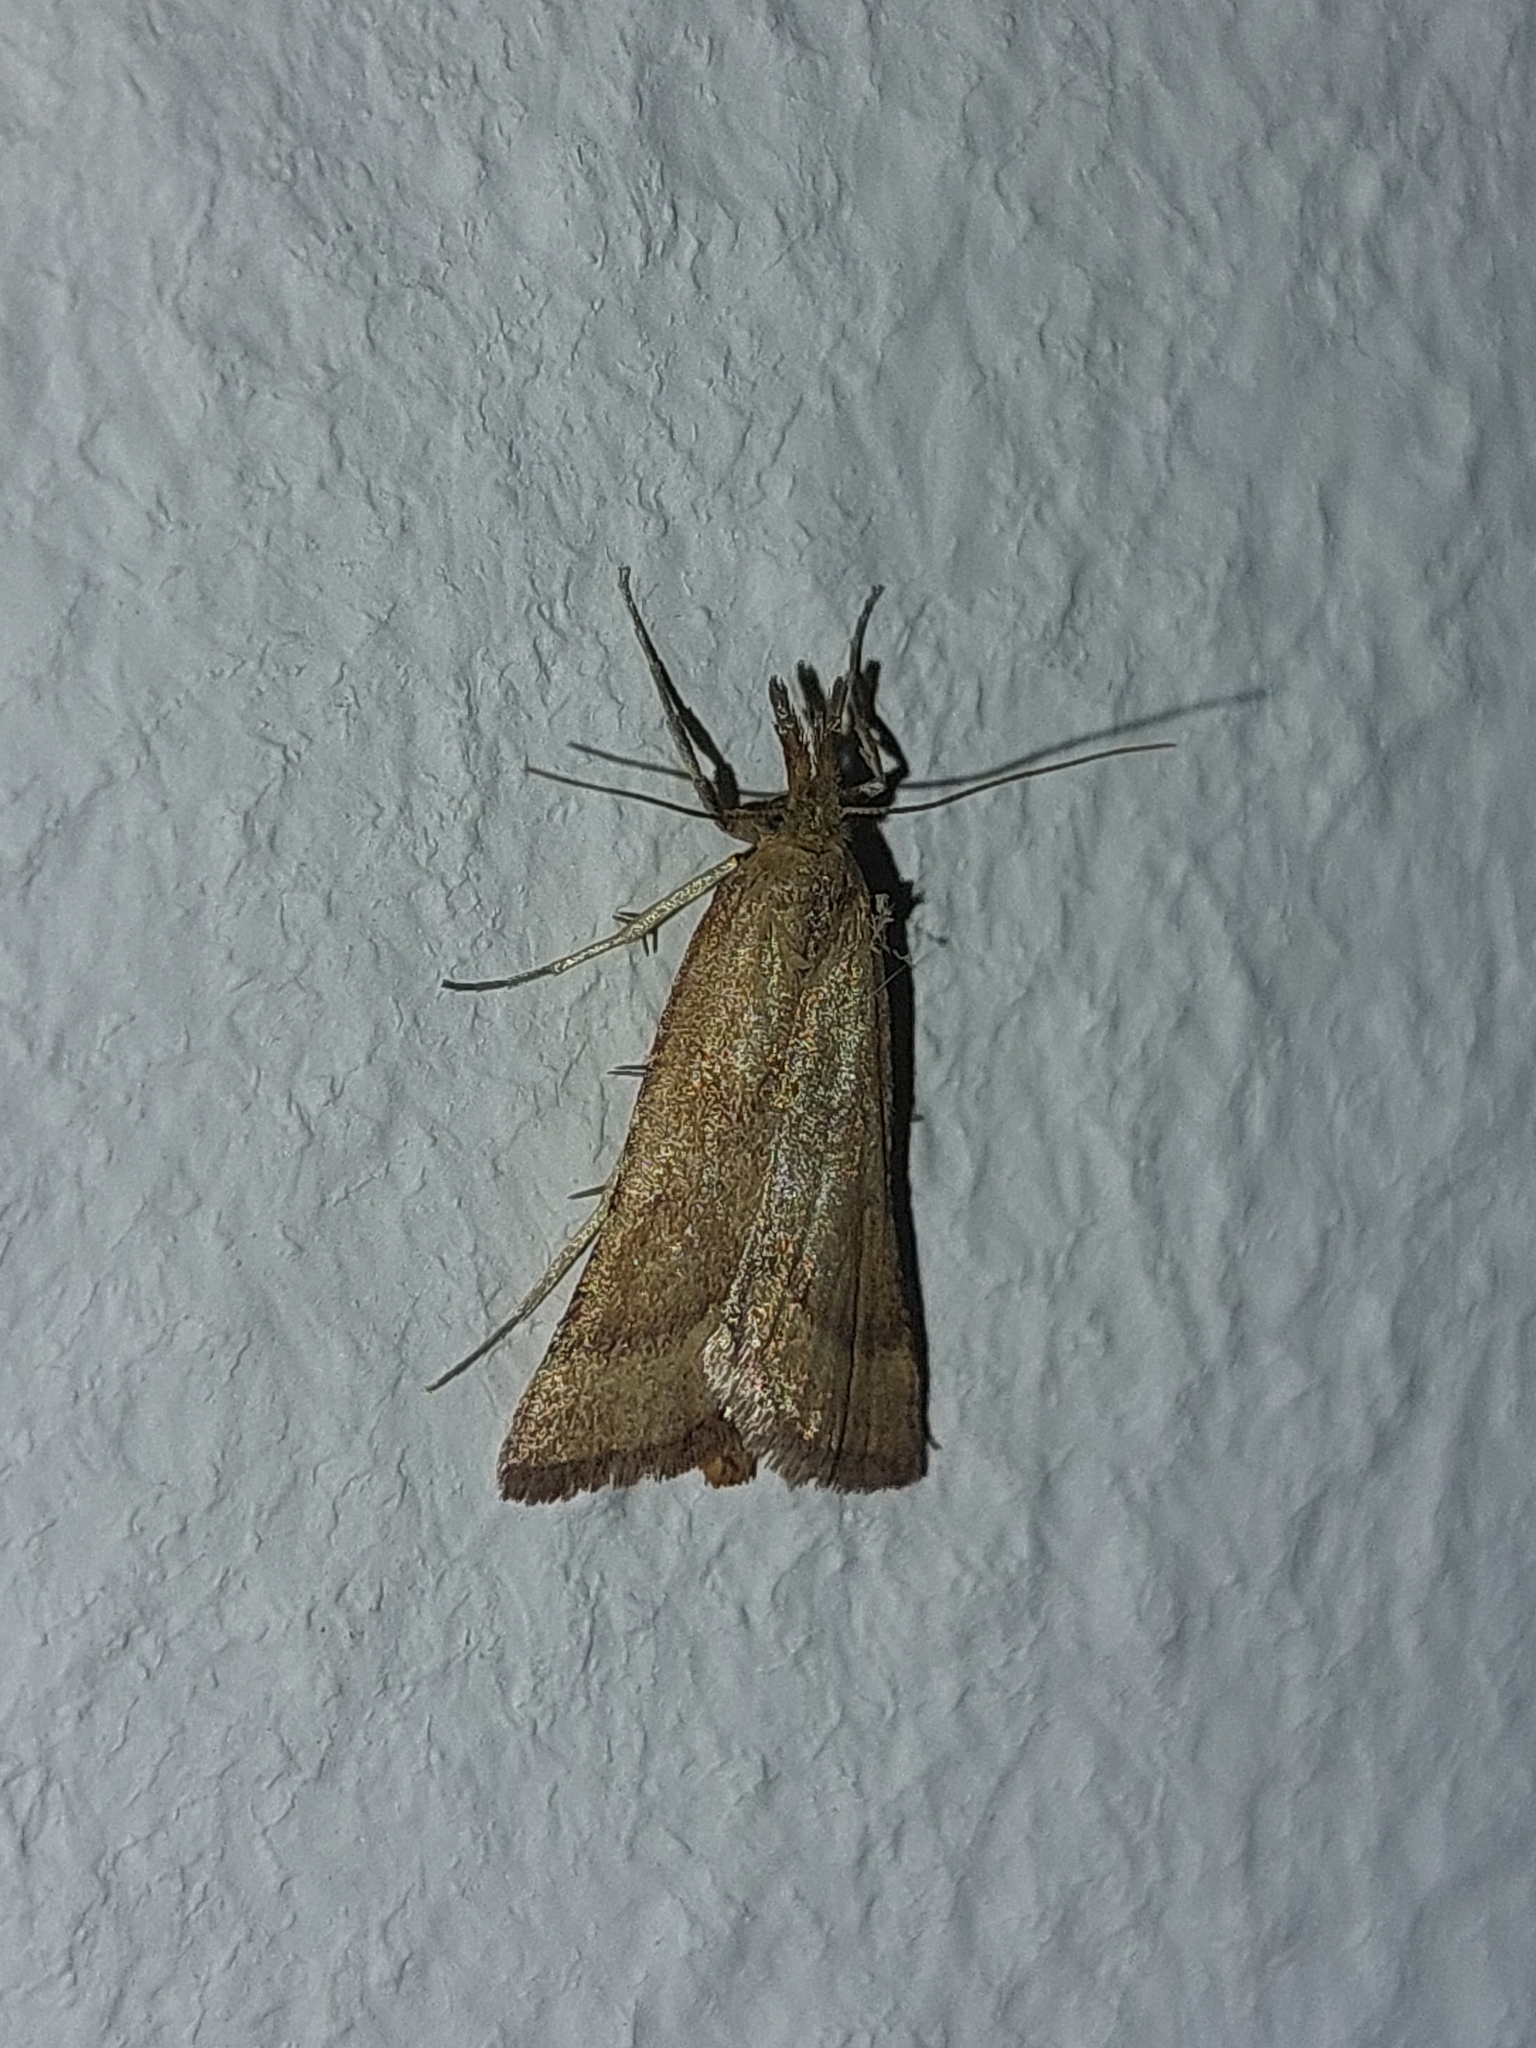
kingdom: Animalia
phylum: Arthropoda
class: Insecta
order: Lepidoptera
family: Pyralidae
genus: Synaphe
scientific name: Synaphe punctalis
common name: Long-legged tabby
